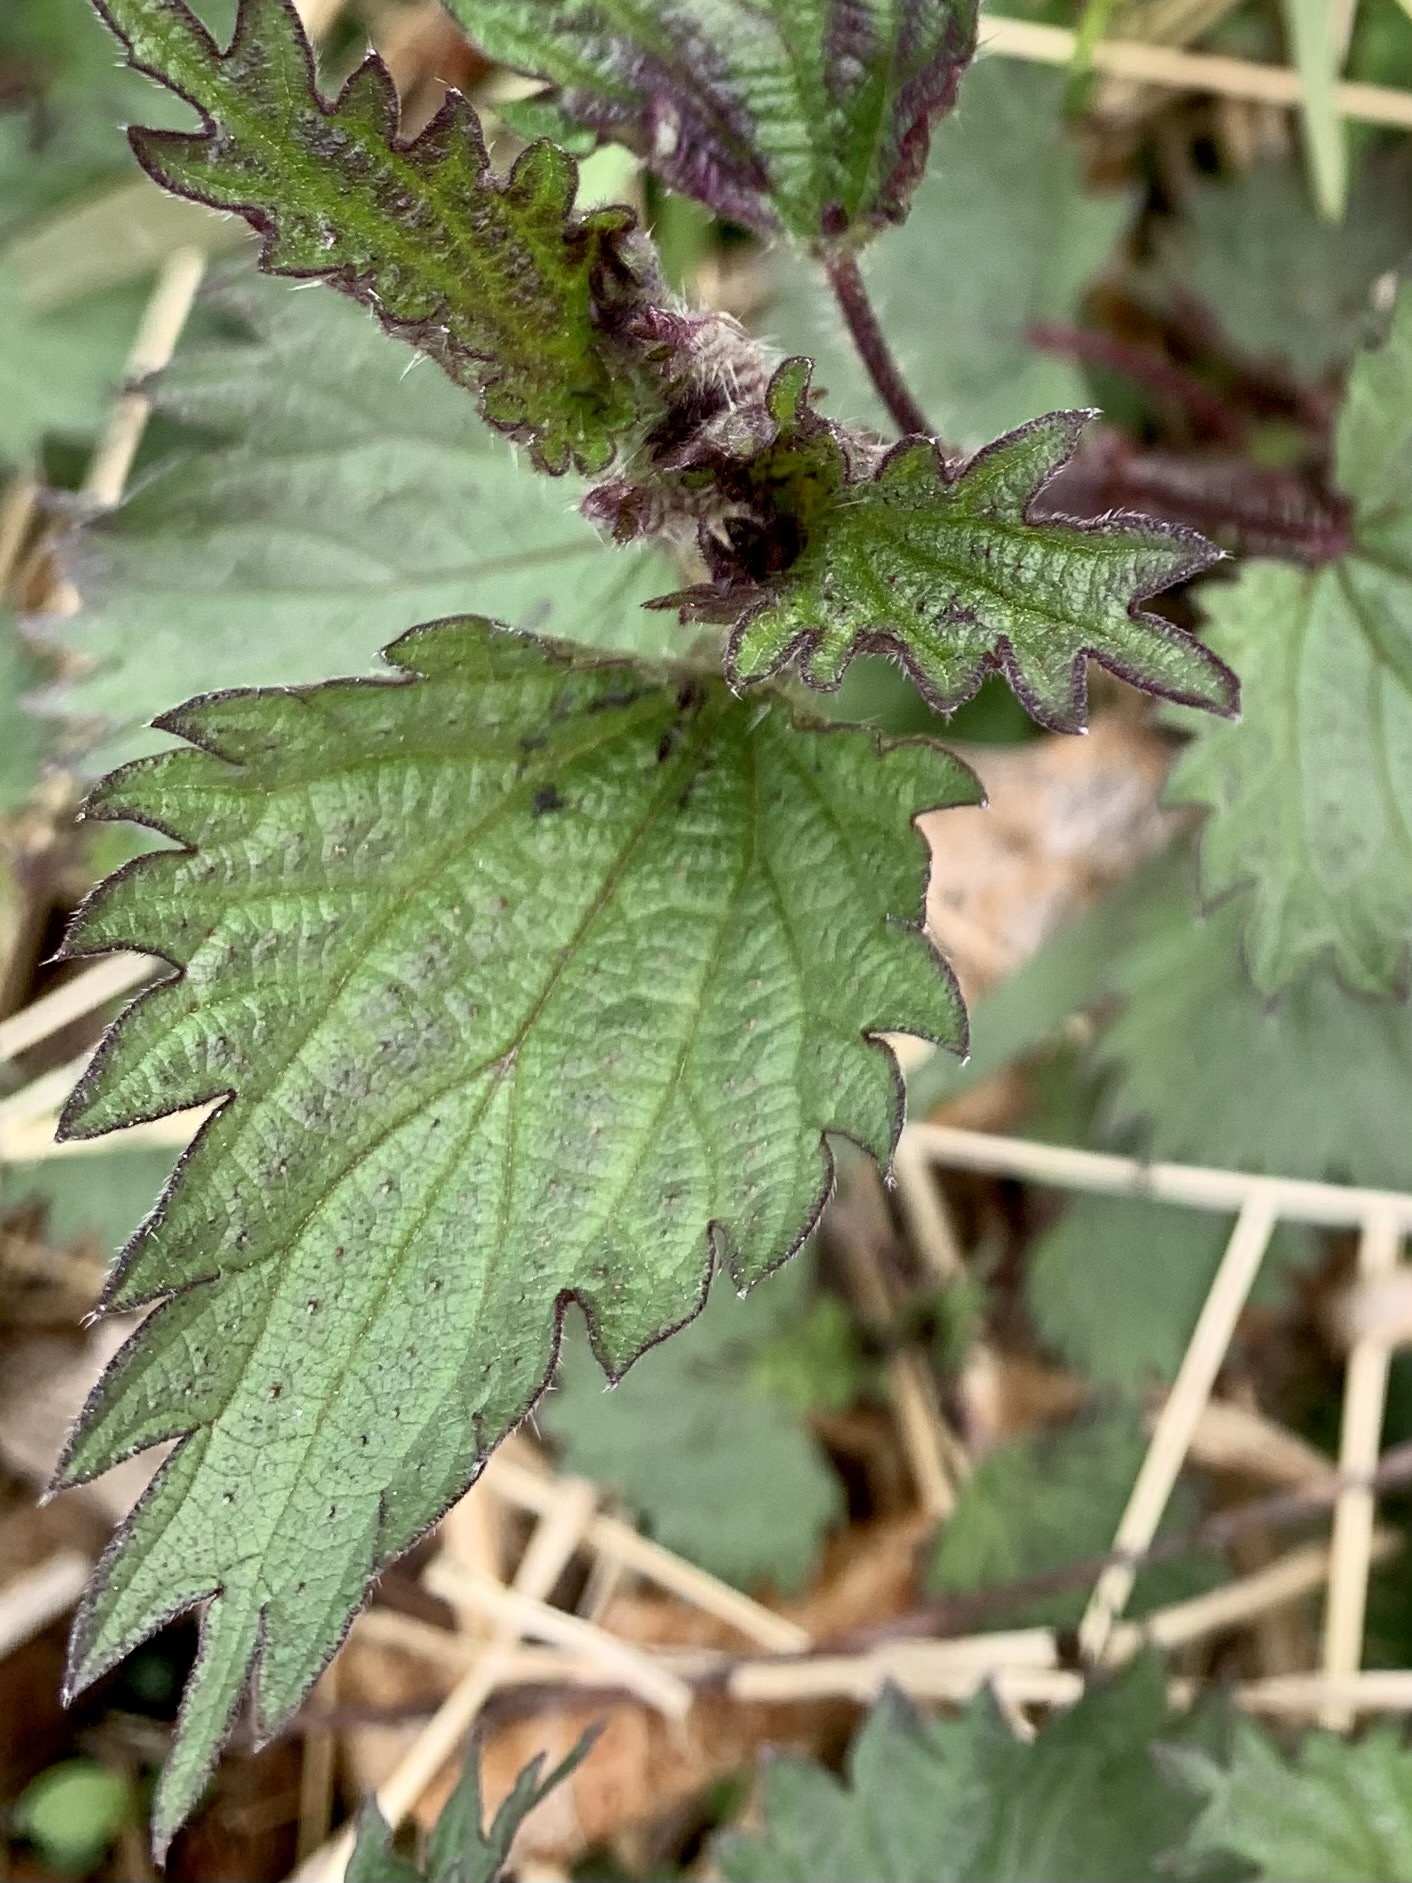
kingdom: Plantae
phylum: Tracheophyta
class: Magnoliopsida
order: Rosales
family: Urticaceae
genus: Urtica
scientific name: Urtica dioica
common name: Common nettle
